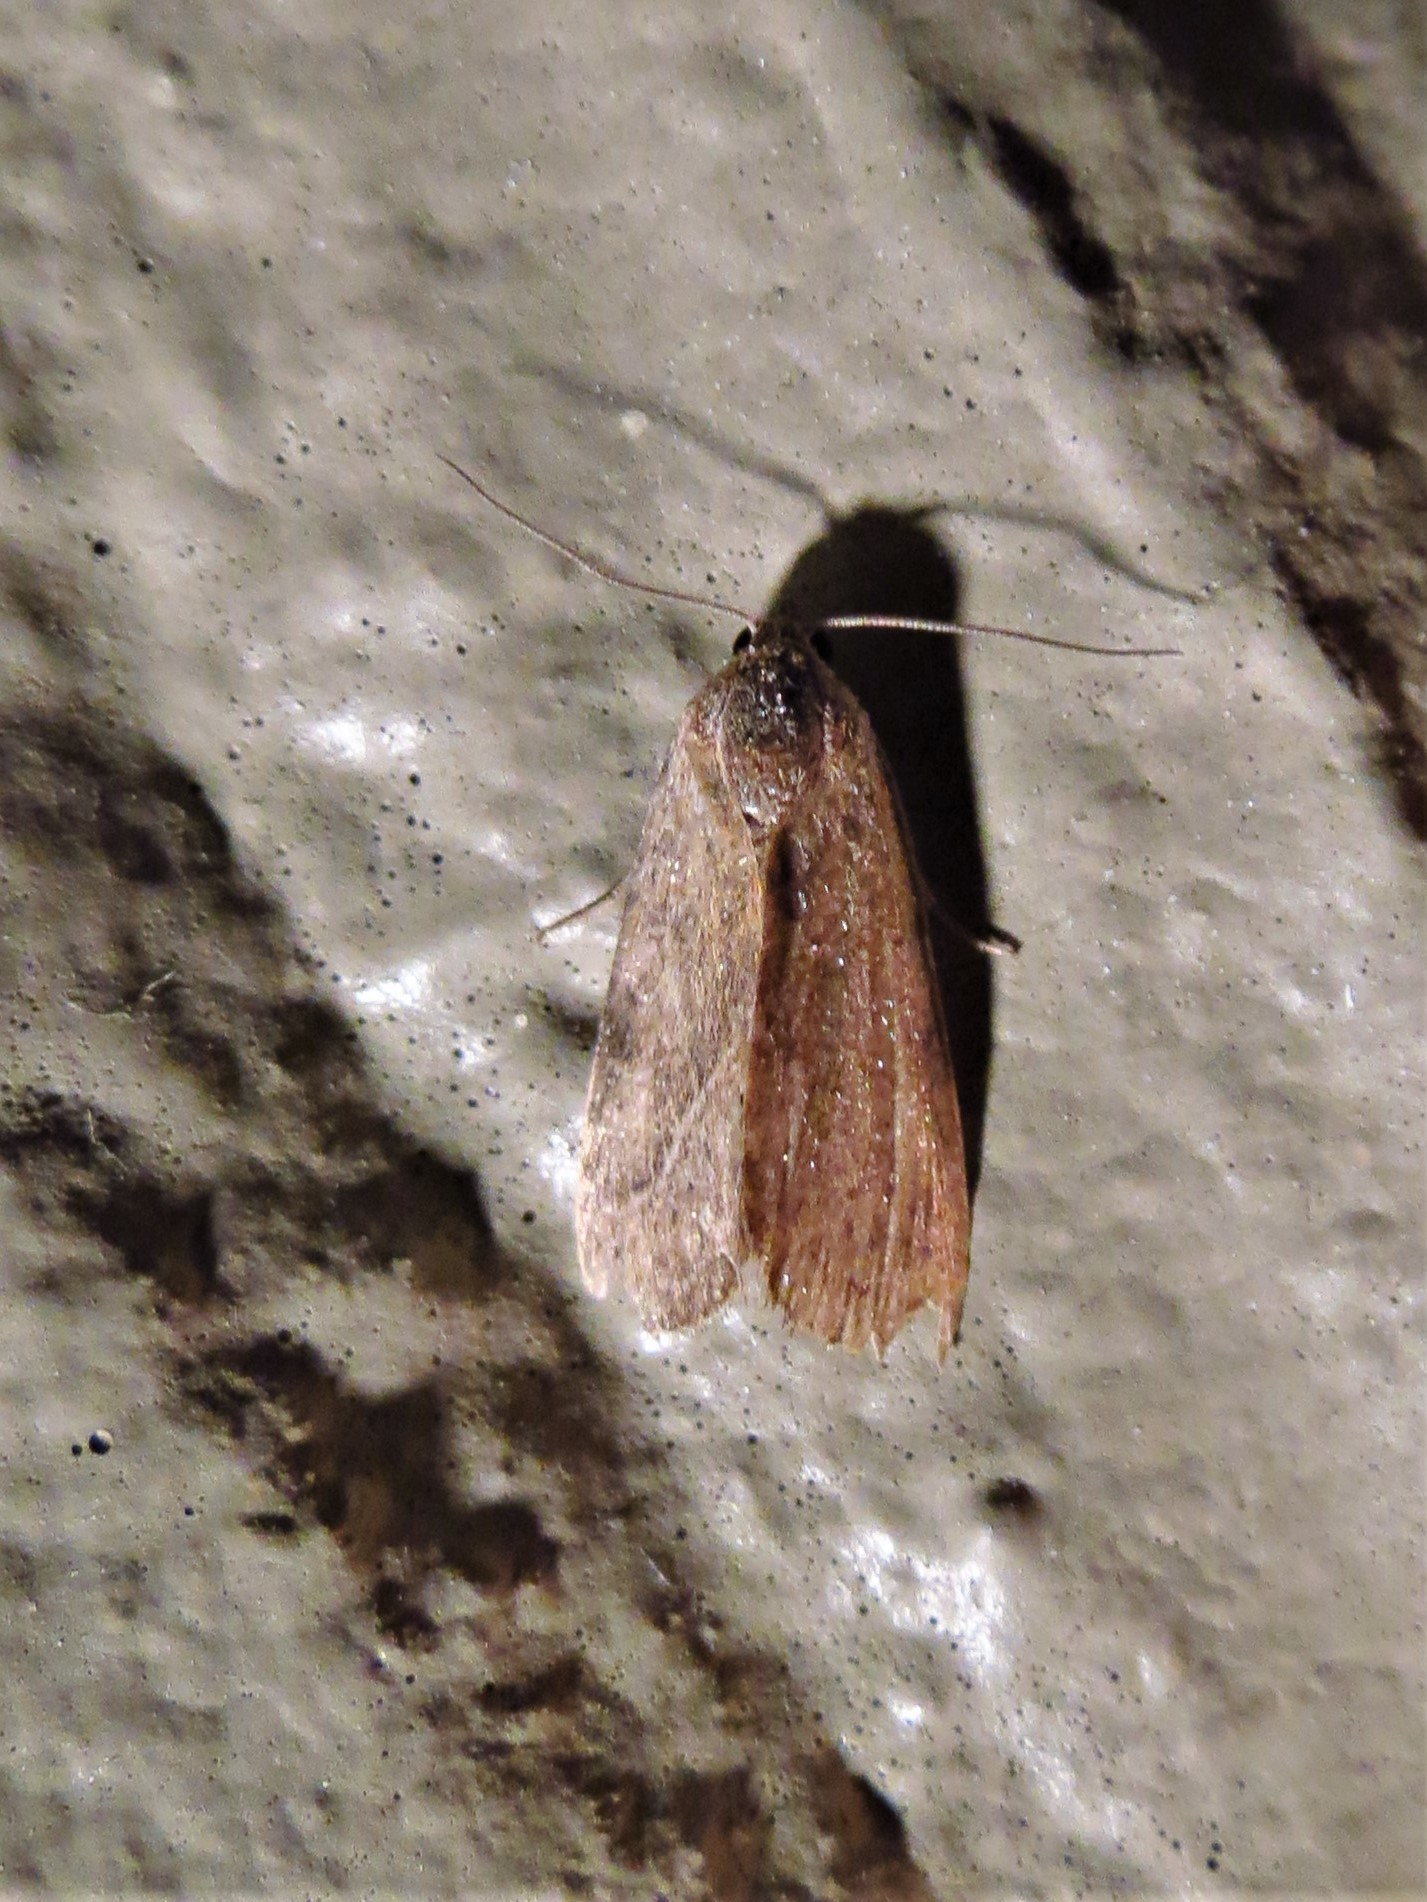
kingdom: Animalia
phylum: Arthropoda
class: Insecta
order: Lepidoptera
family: Noctuidae
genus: Galgula
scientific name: Galgula partita
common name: Wedgeling
